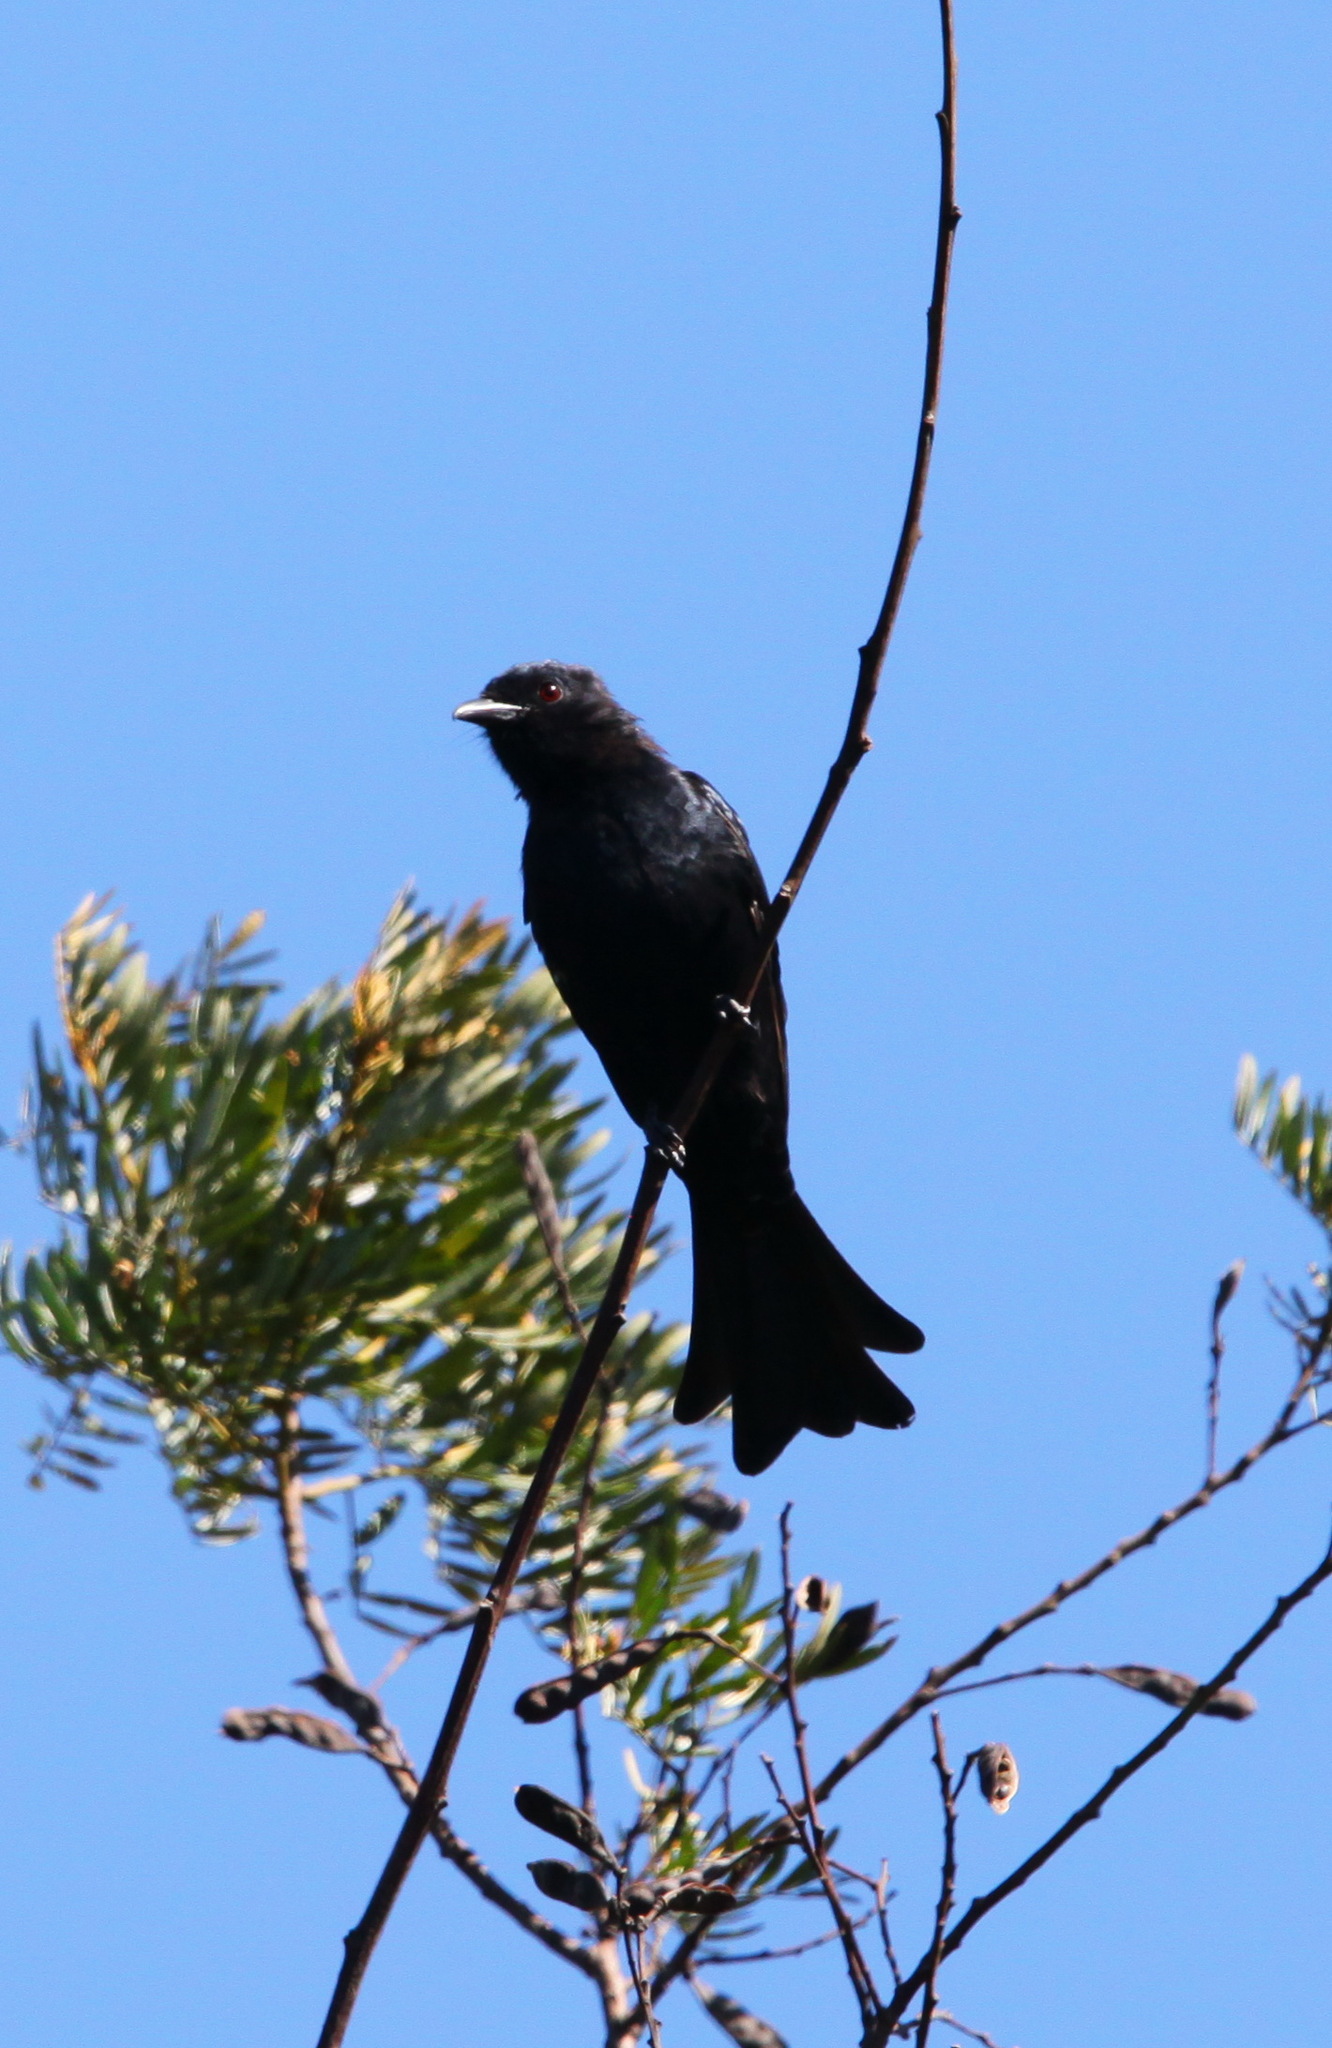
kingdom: Animalia
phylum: Chordata
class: Aves
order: Passeriformes
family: Dicruridae
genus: Dicrurus
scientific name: Dicrurus adsimilis
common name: Fork-tailed drongo
